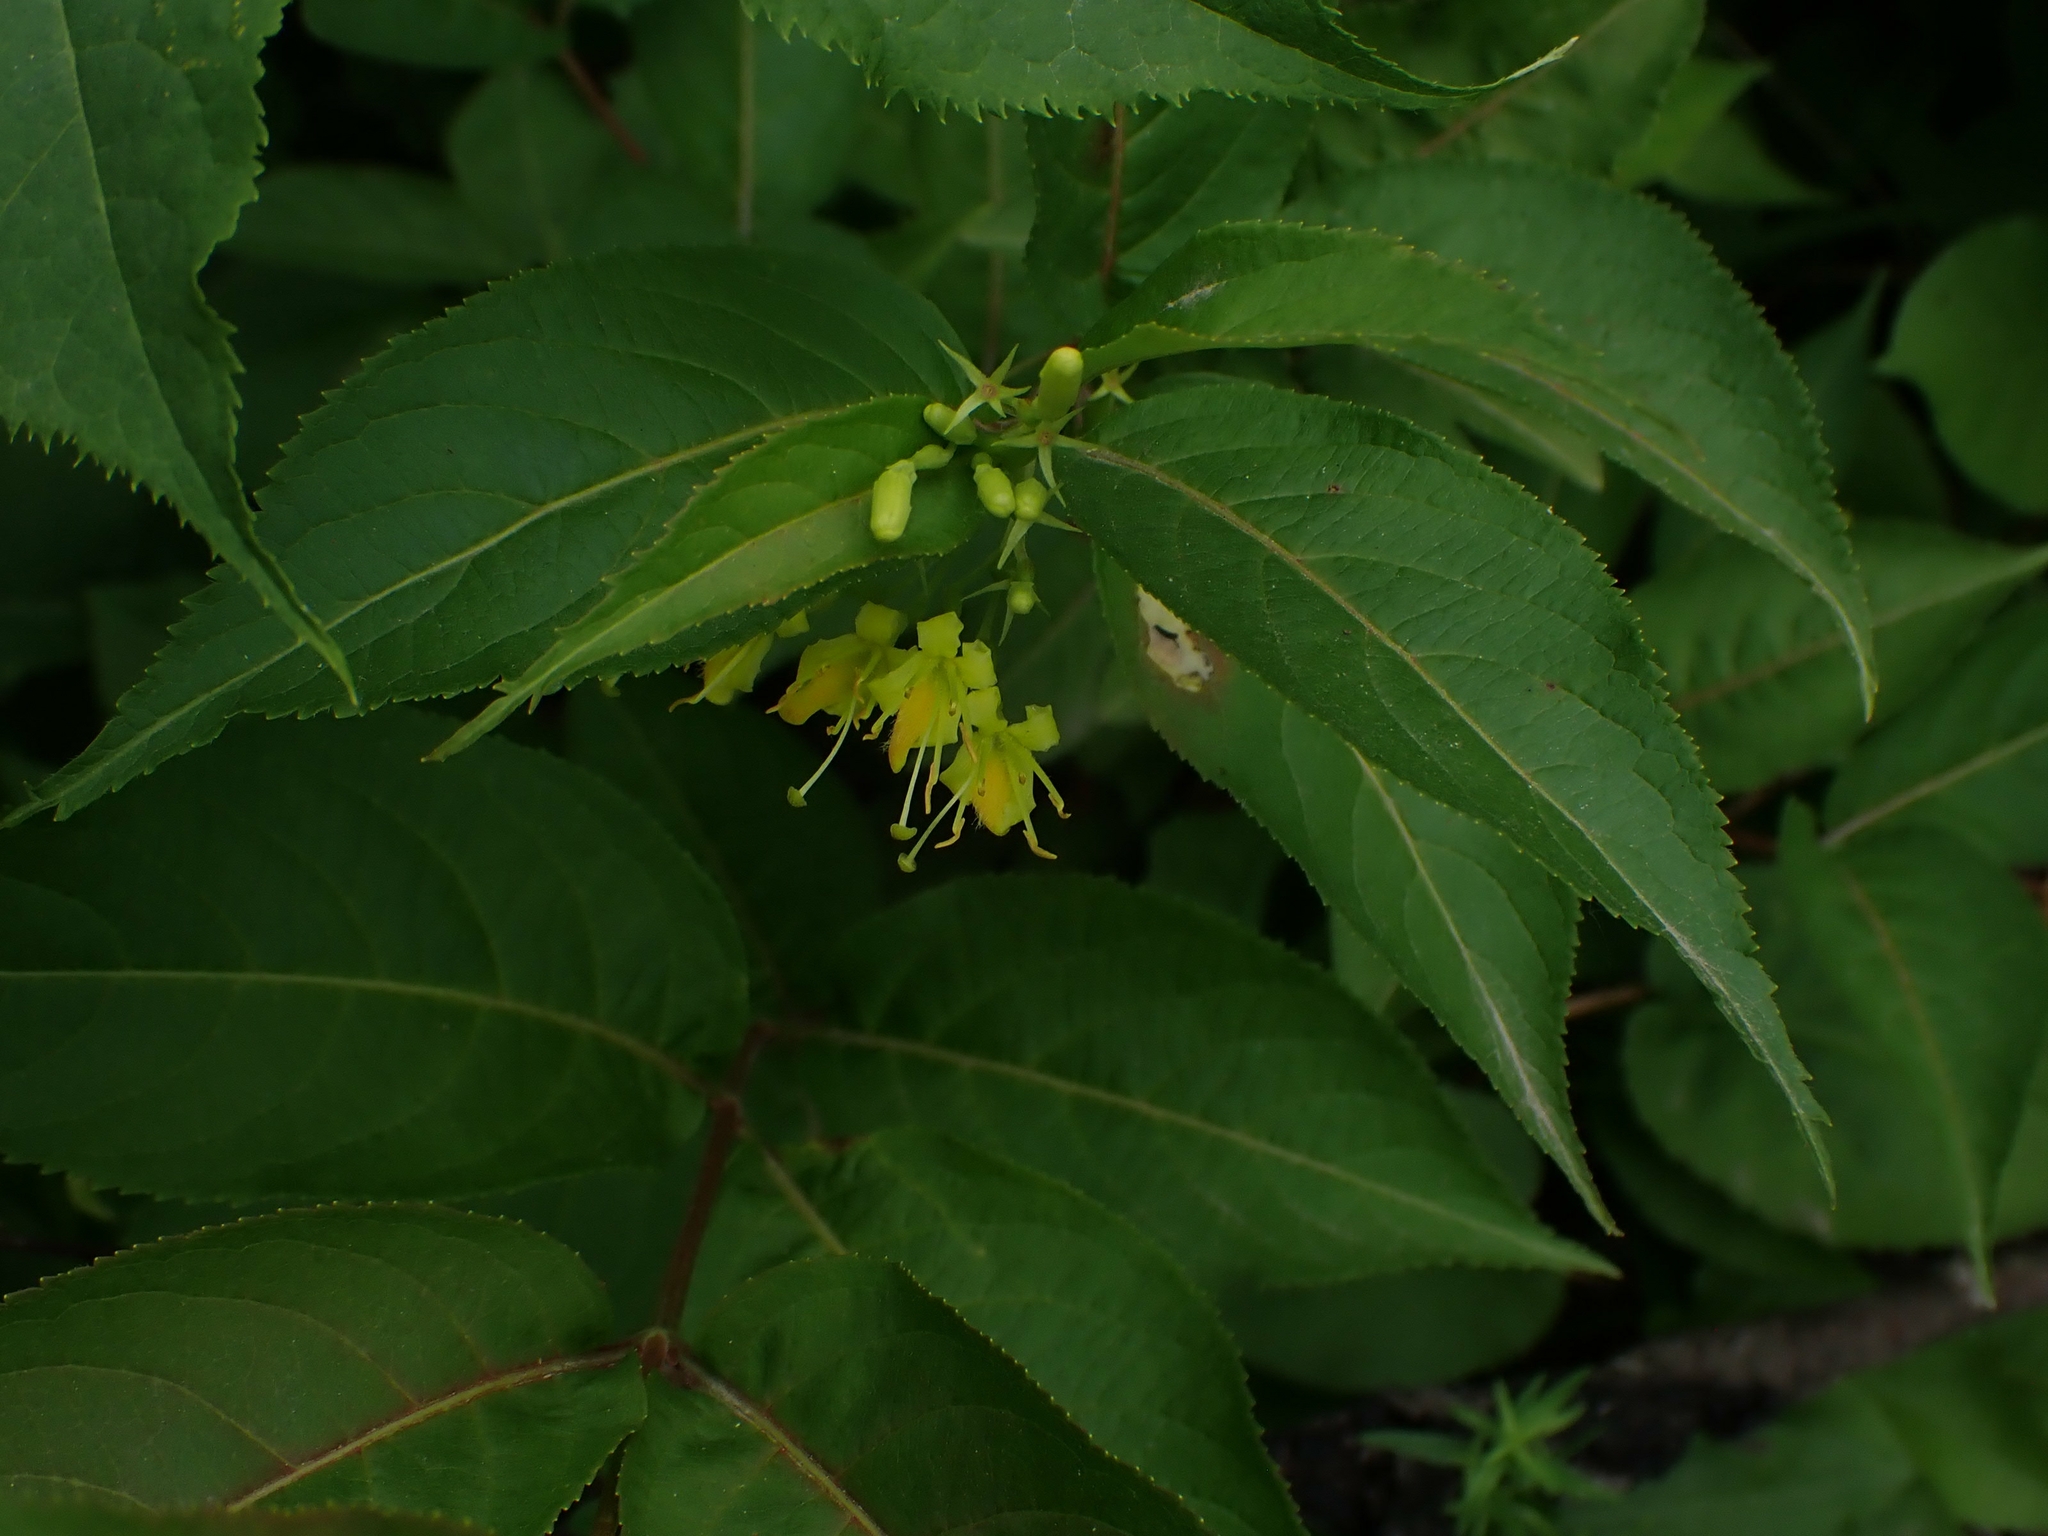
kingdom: Plantae
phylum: Tracheophyta
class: Magnoliopsida
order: Dipsacales
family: Caprifoliaceae
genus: Diervilla
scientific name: Diervilla lonicera
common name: Bush-honeysuckle
